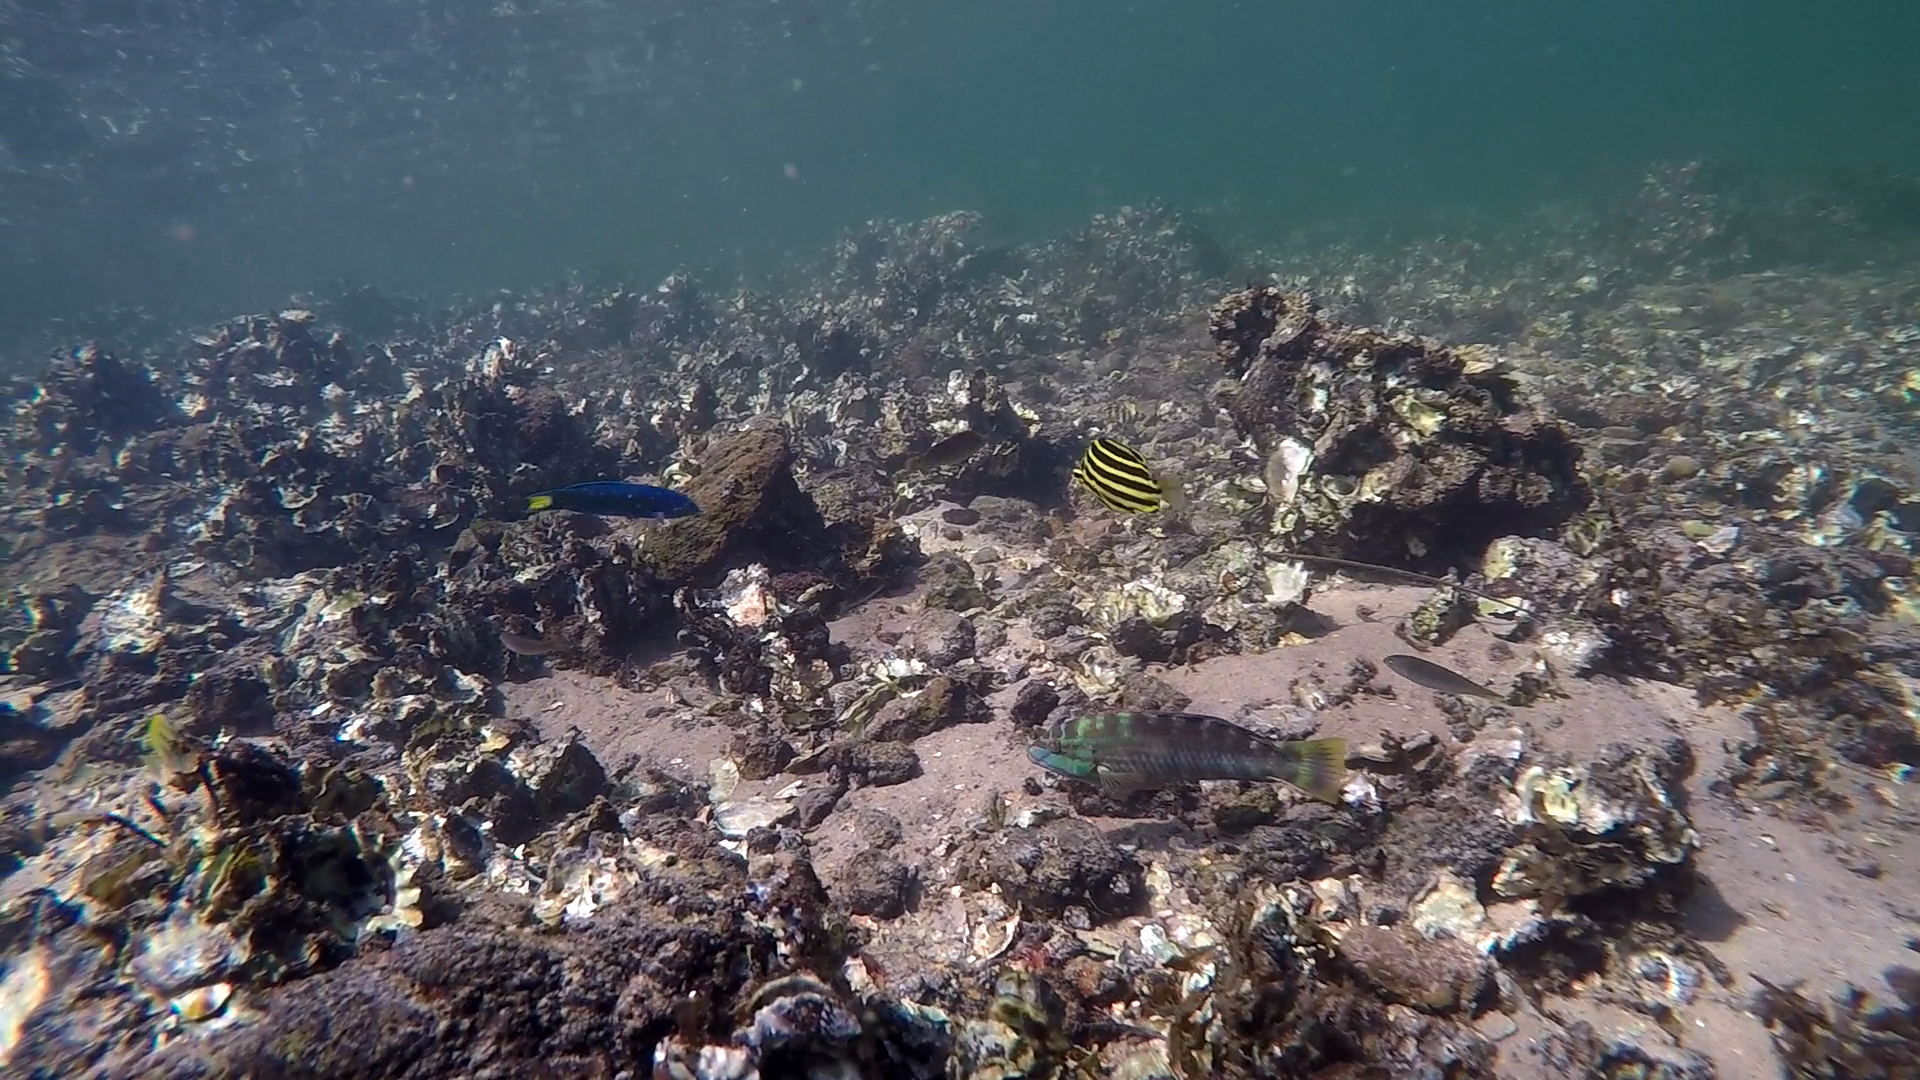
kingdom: Animalia
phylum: Chordata
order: Perciformes
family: Labridae
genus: Pseudolabrus
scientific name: Pseudolabrus guentheri
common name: Günther's wrasse
